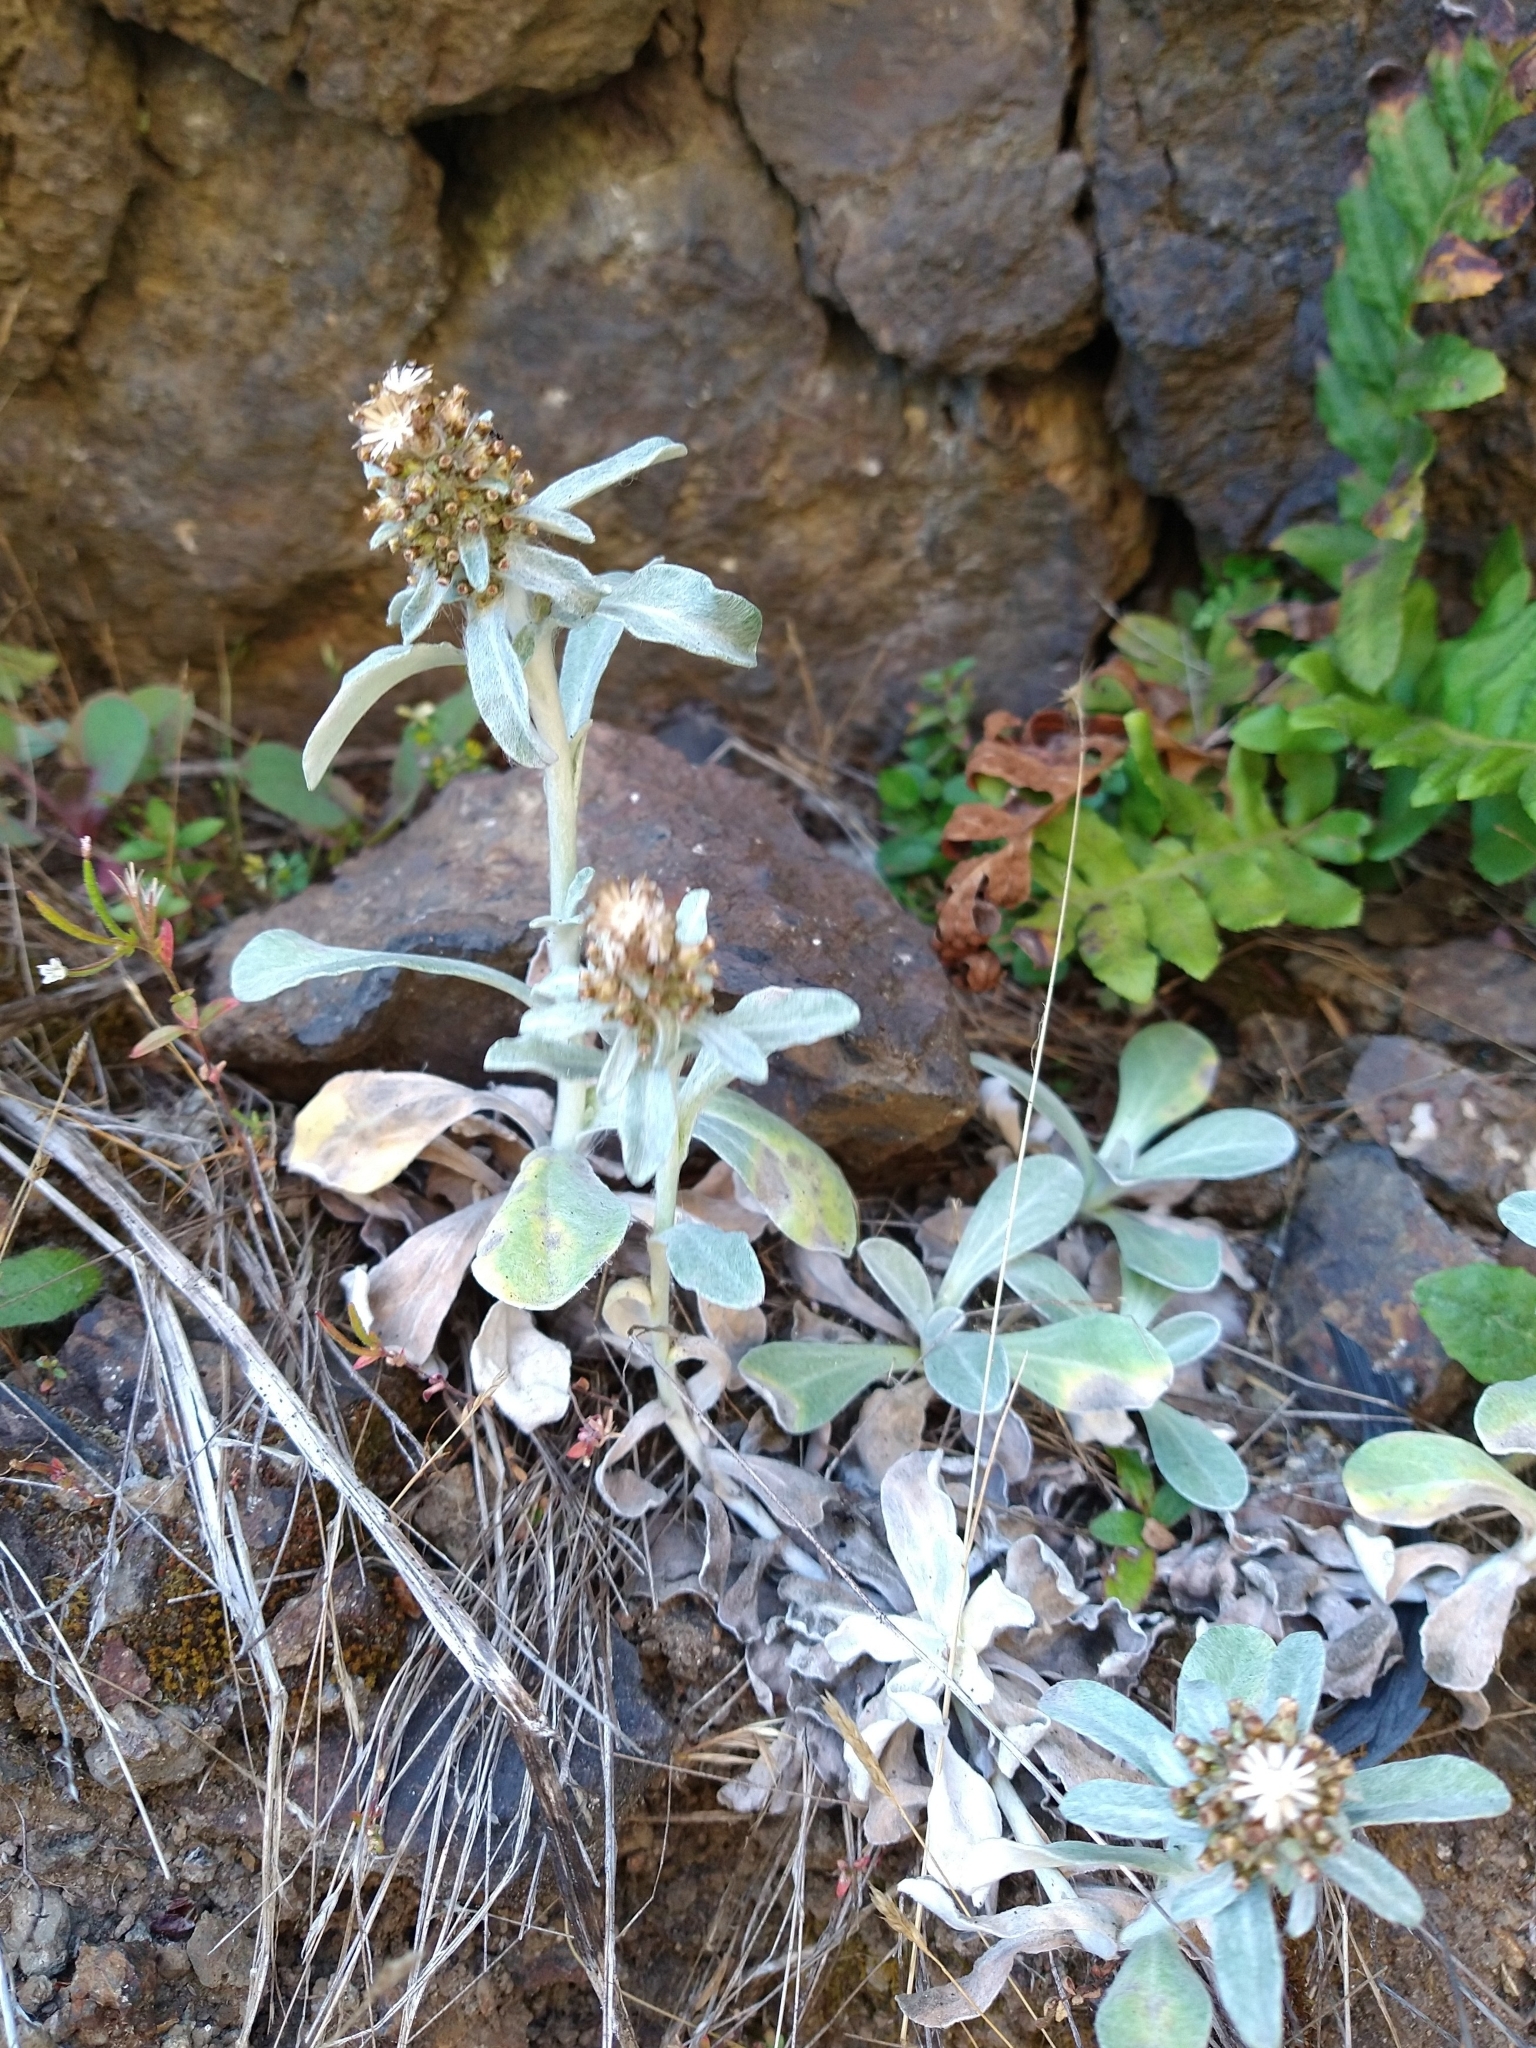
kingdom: Plantae
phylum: Tracheophyta
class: Magnoliopsida
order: Asterales
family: Asteraceae
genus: Gamochaeta
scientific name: Gamochaeta ustulata
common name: Pacific cudweed
